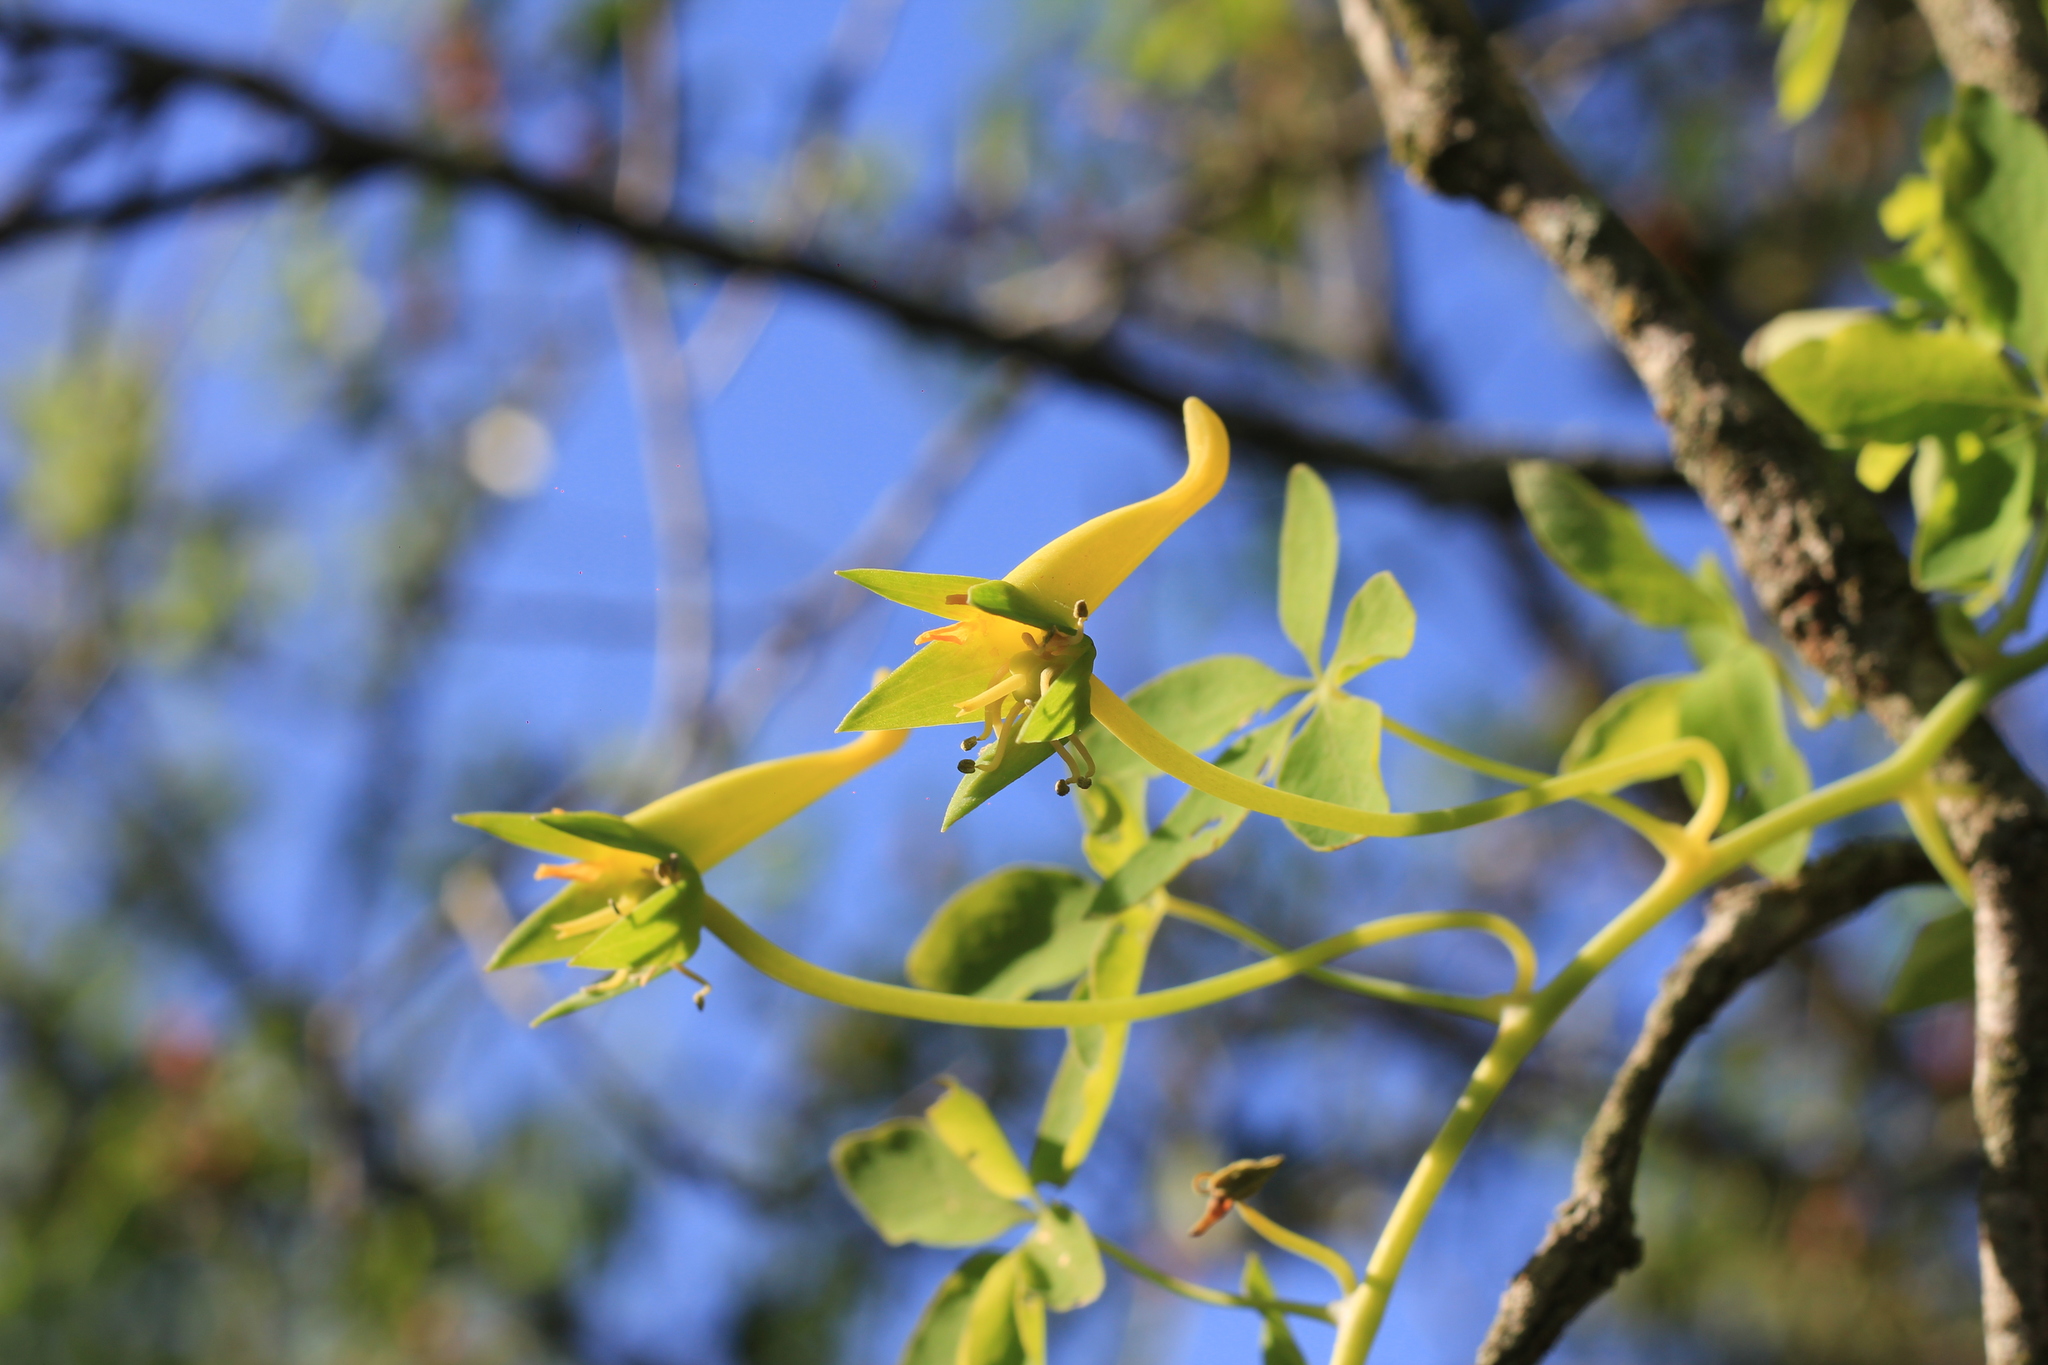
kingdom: Plantae
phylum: Tracheophyta
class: Magnoliopsida
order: Brassicales
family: Tropaeolaceae
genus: Tropaeolum
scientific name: Tropaeolum pentaphyllum
